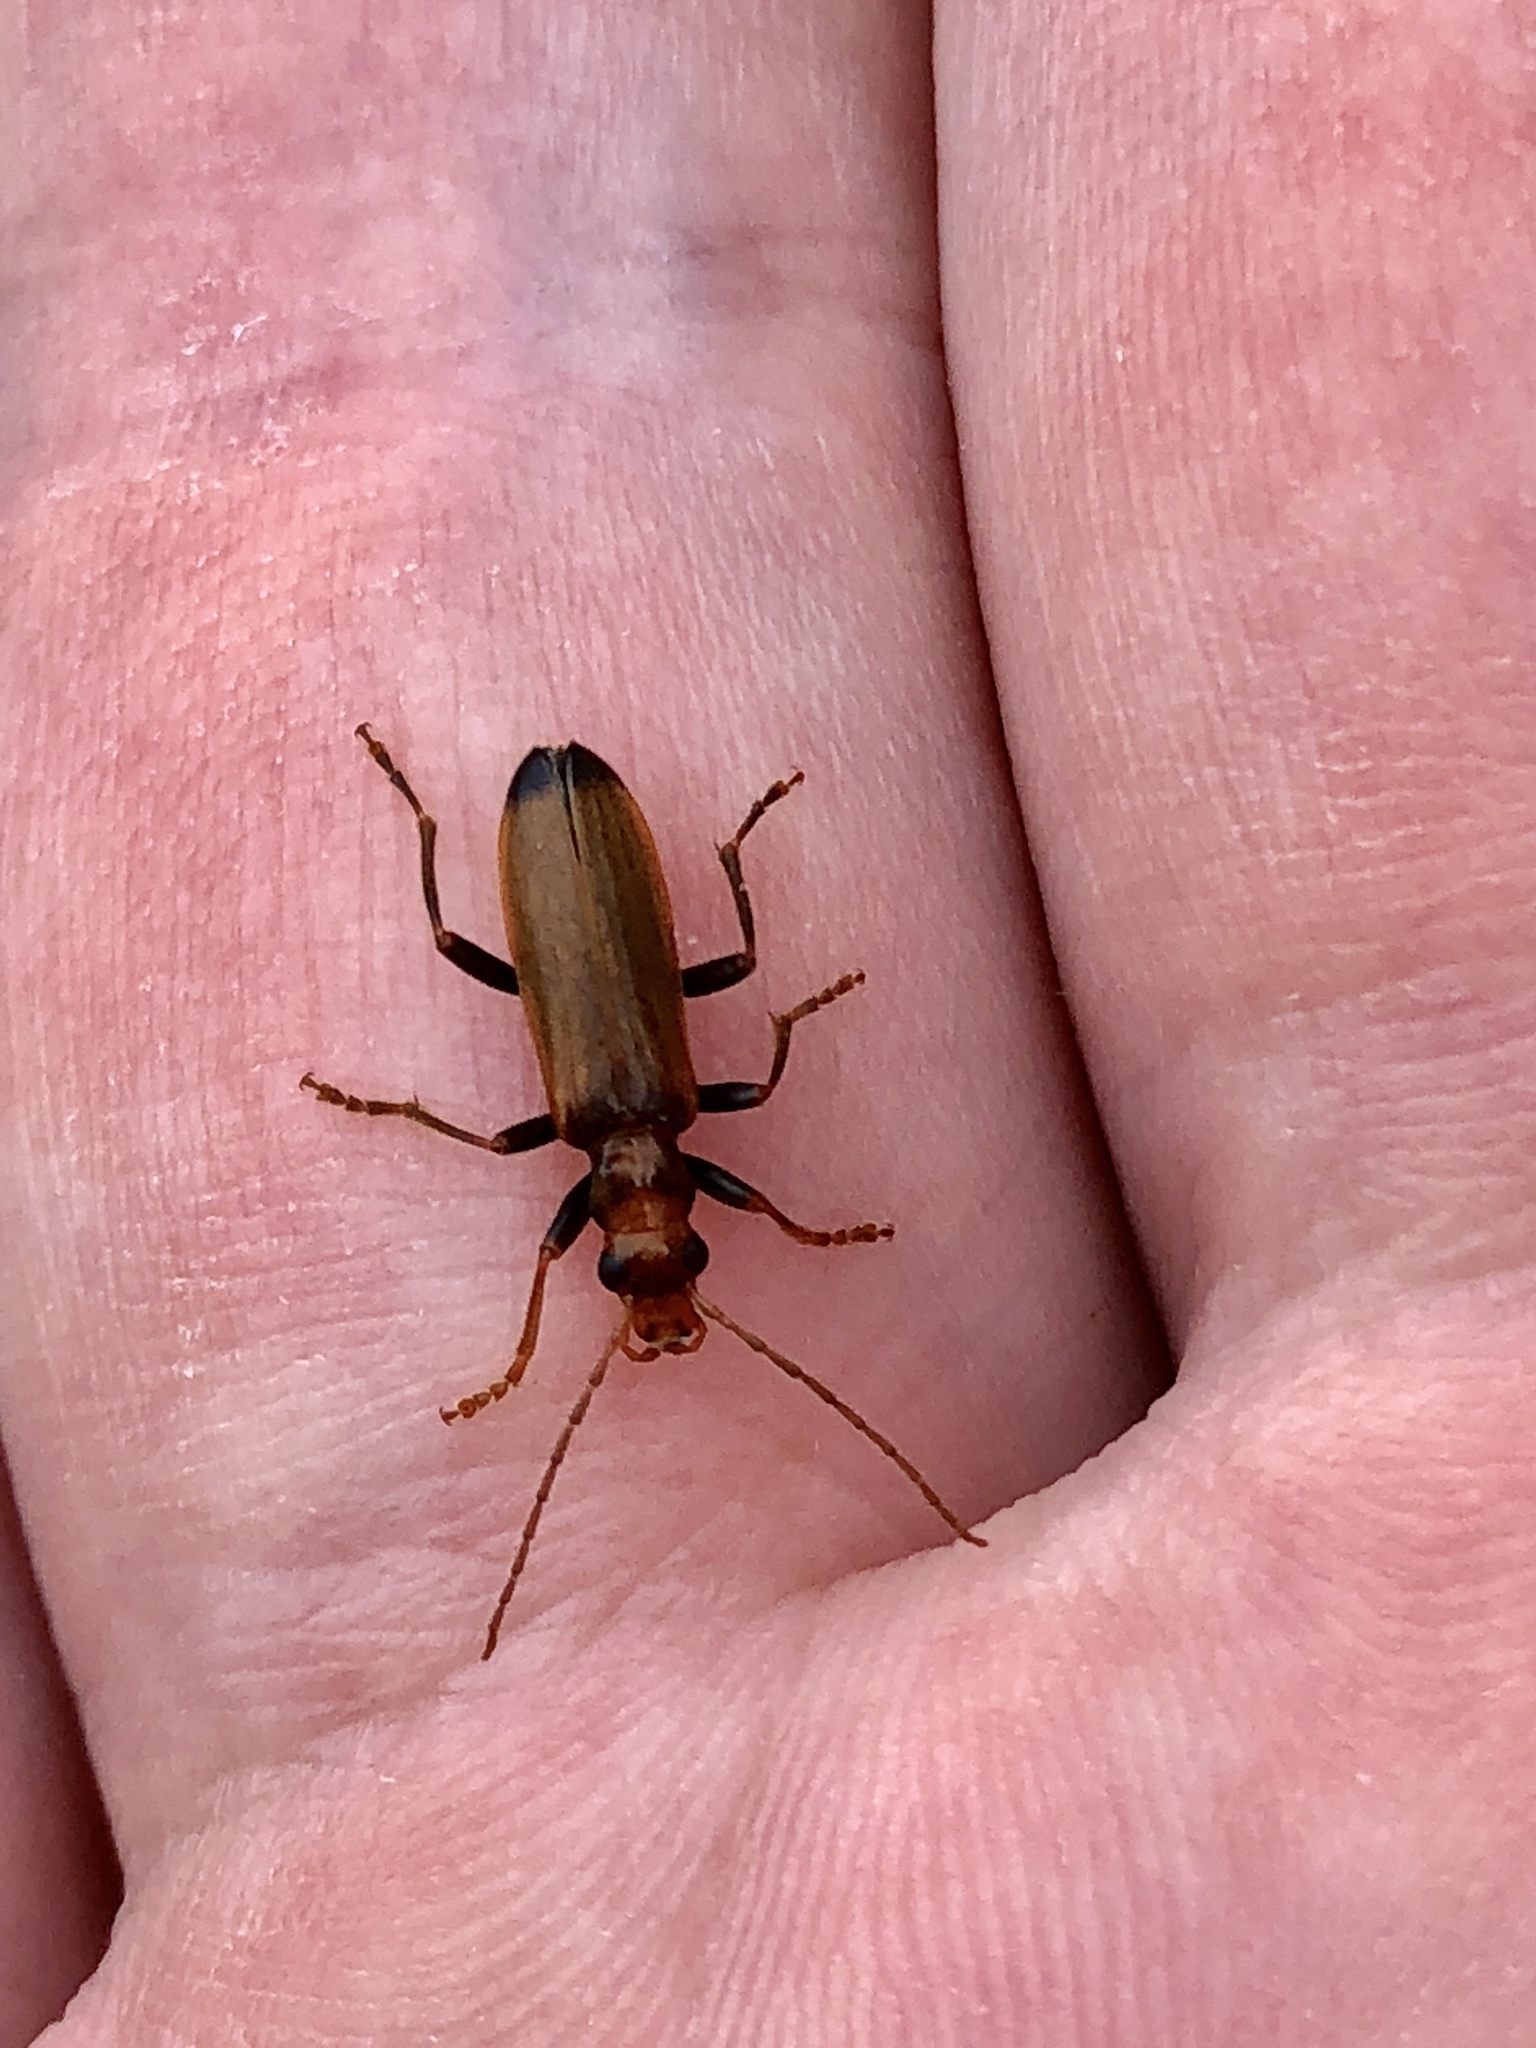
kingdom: Animalia
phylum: Arthropoda
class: Insecta
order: Coleoptera
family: Oedemeridae
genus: Nacerdes
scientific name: Nacerdes melanura
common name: Wharf borer
